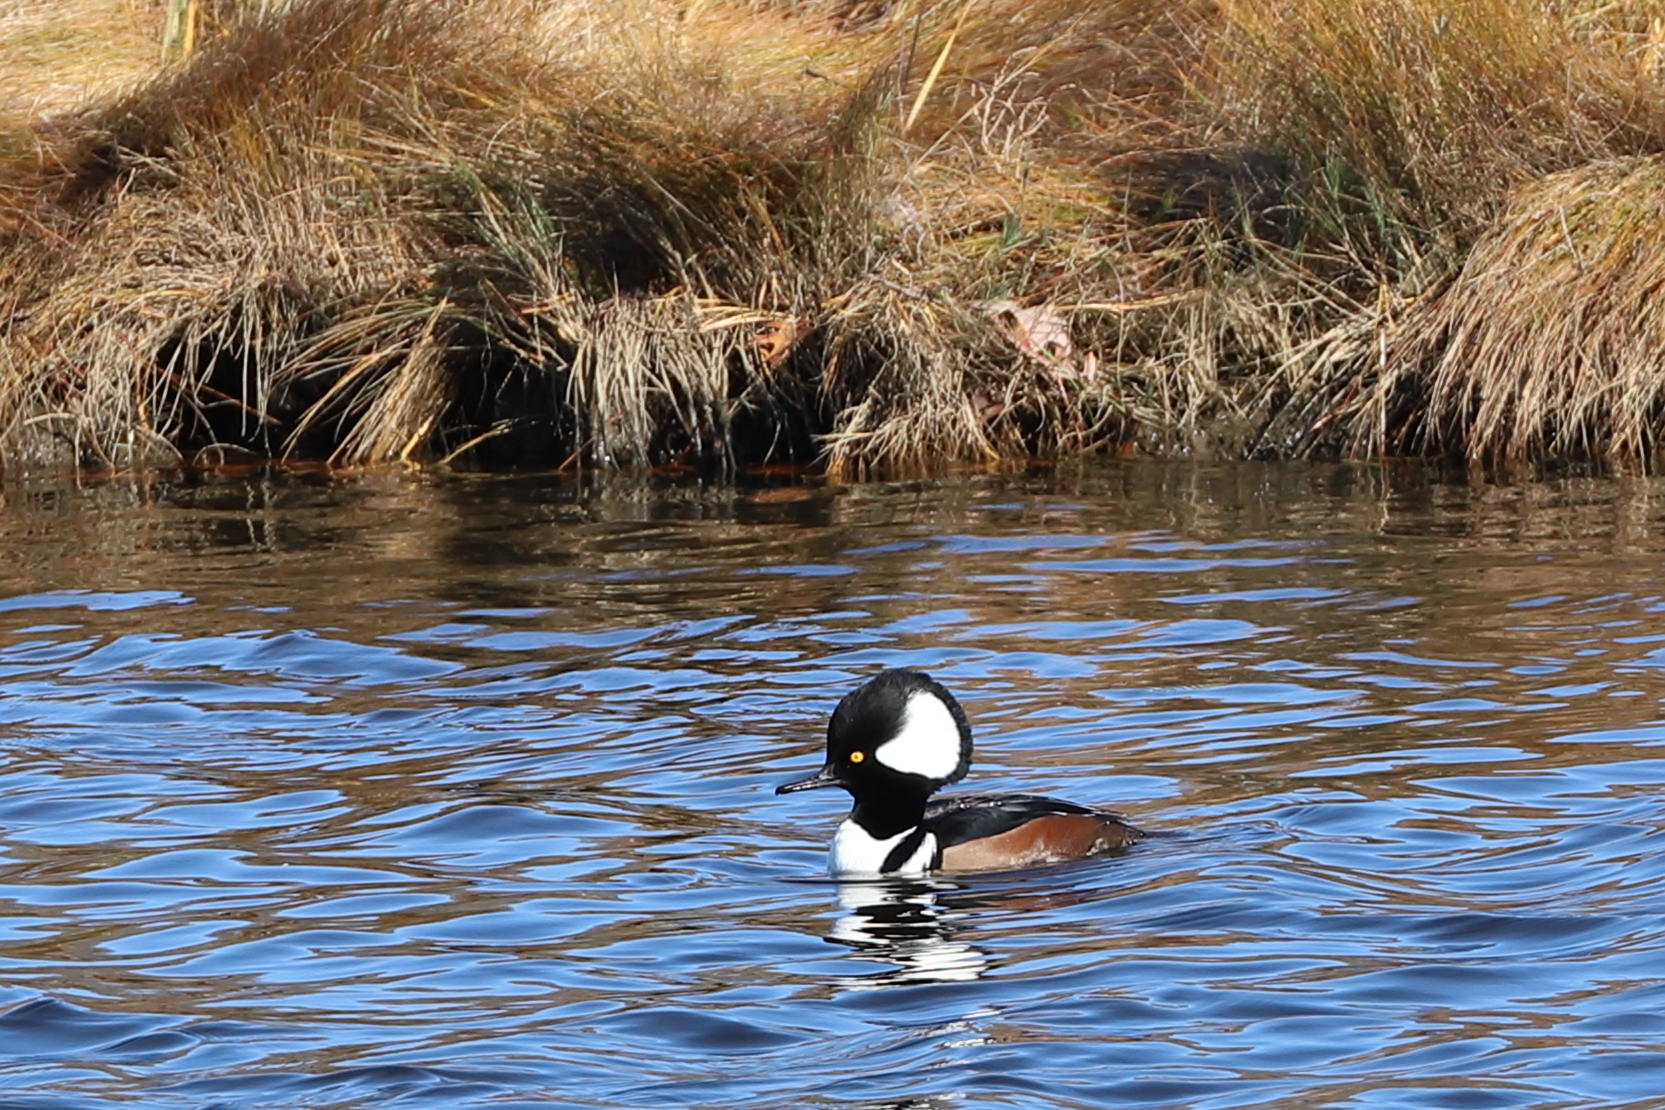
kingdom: Animalia
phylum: Chordata
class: Aves
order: Anseriformes
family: Anatidae
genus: Lophodytes
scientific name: Lophodytes cucullatus
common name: Hooded merganser
